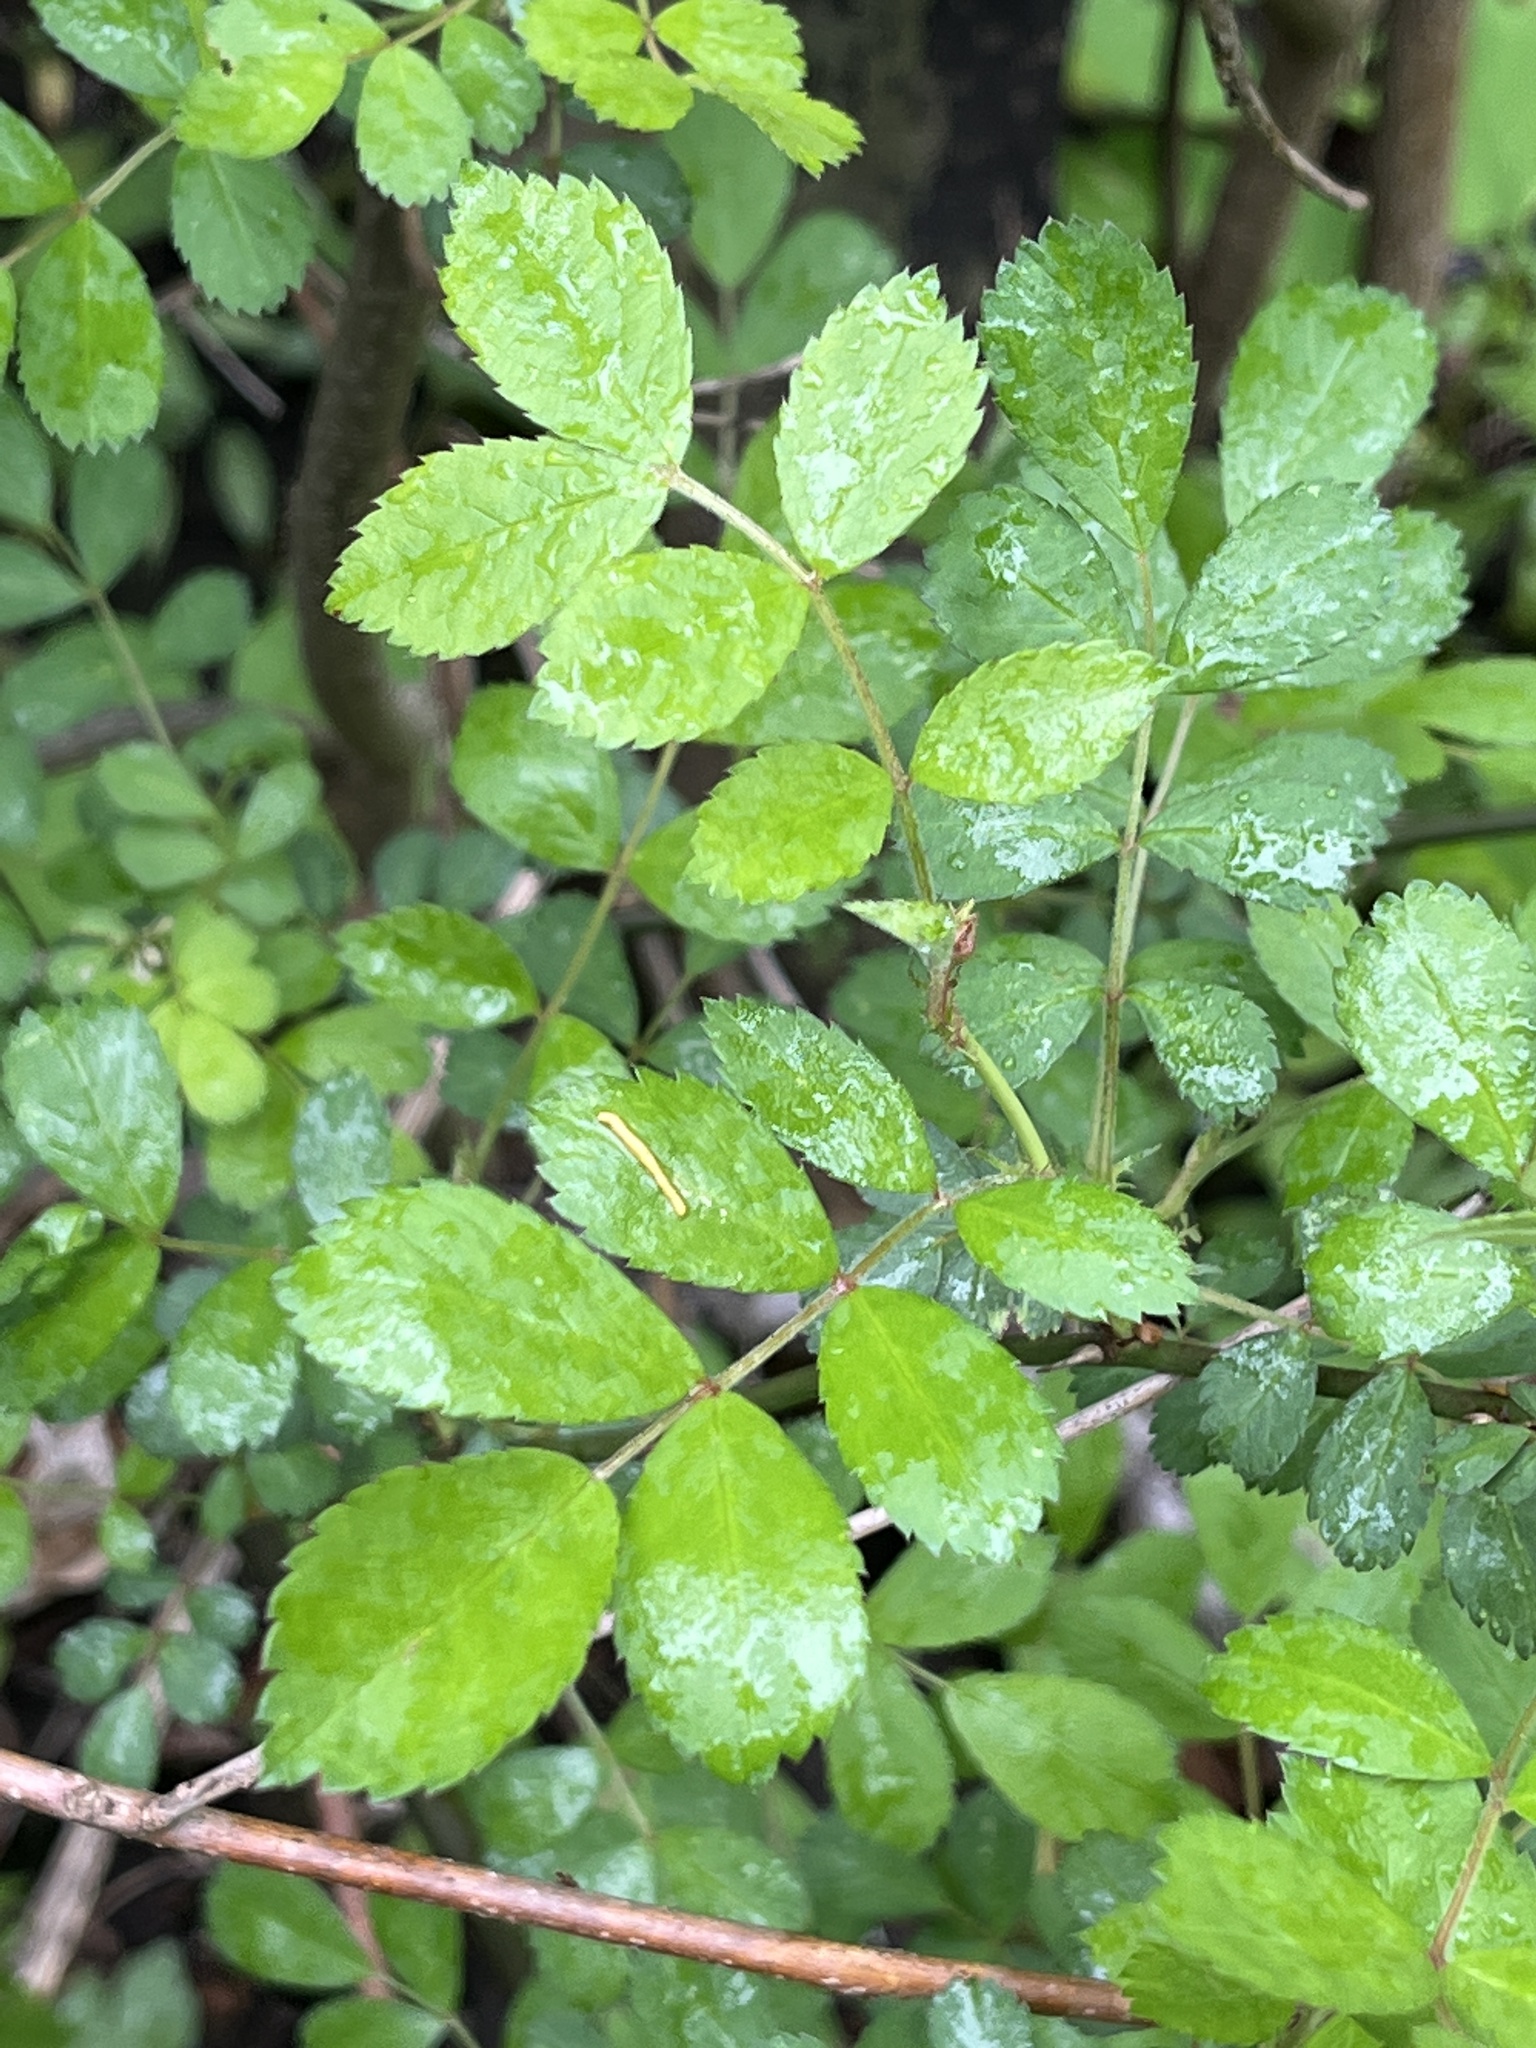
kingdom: Plantae
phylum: Tracheophyta
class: Magnoliopsida
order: Rosales
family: Rosaceae
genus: Rosa
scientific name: Rosa multiflora
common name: Multiflora rose
